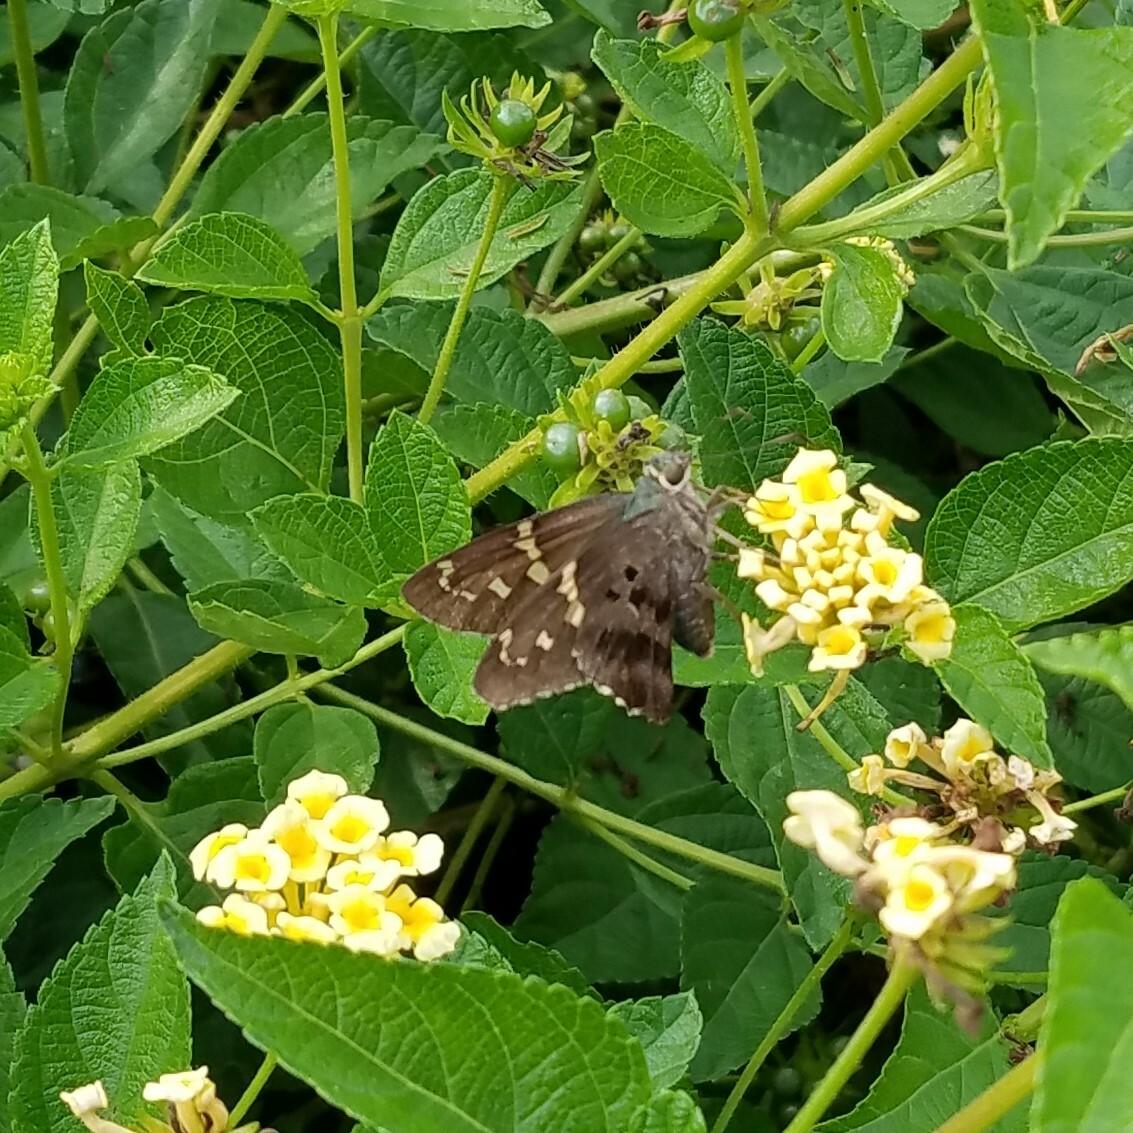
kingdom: Animalia
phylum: Arthropoda
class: Insecta
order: Lepidoptera
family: Hesperiidae
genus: Urbanus
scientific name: Urbanus proteus
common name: Long-tailed skipper
